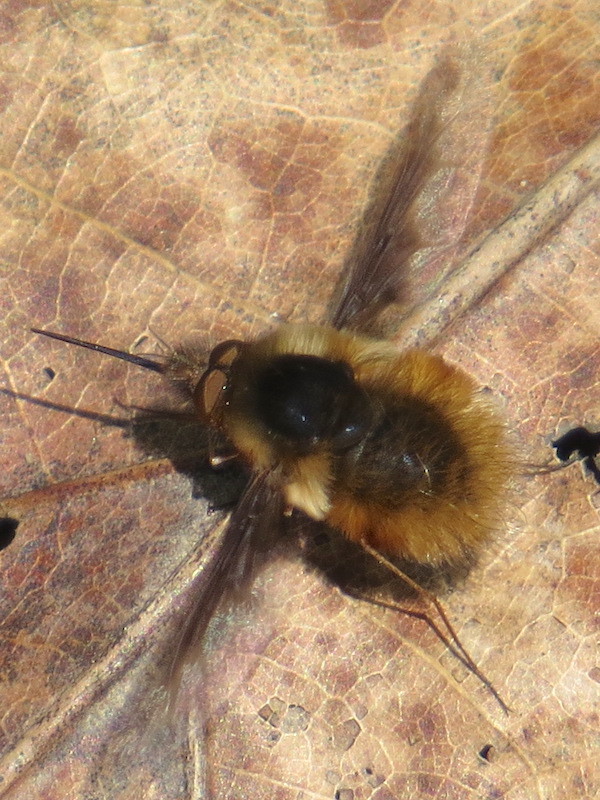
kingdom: Animalia
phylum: Arthropoda
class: Insecta
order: Diptera
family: Bombyliidae
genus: Bombylius
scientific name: Bombylius major
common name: Bee fly
